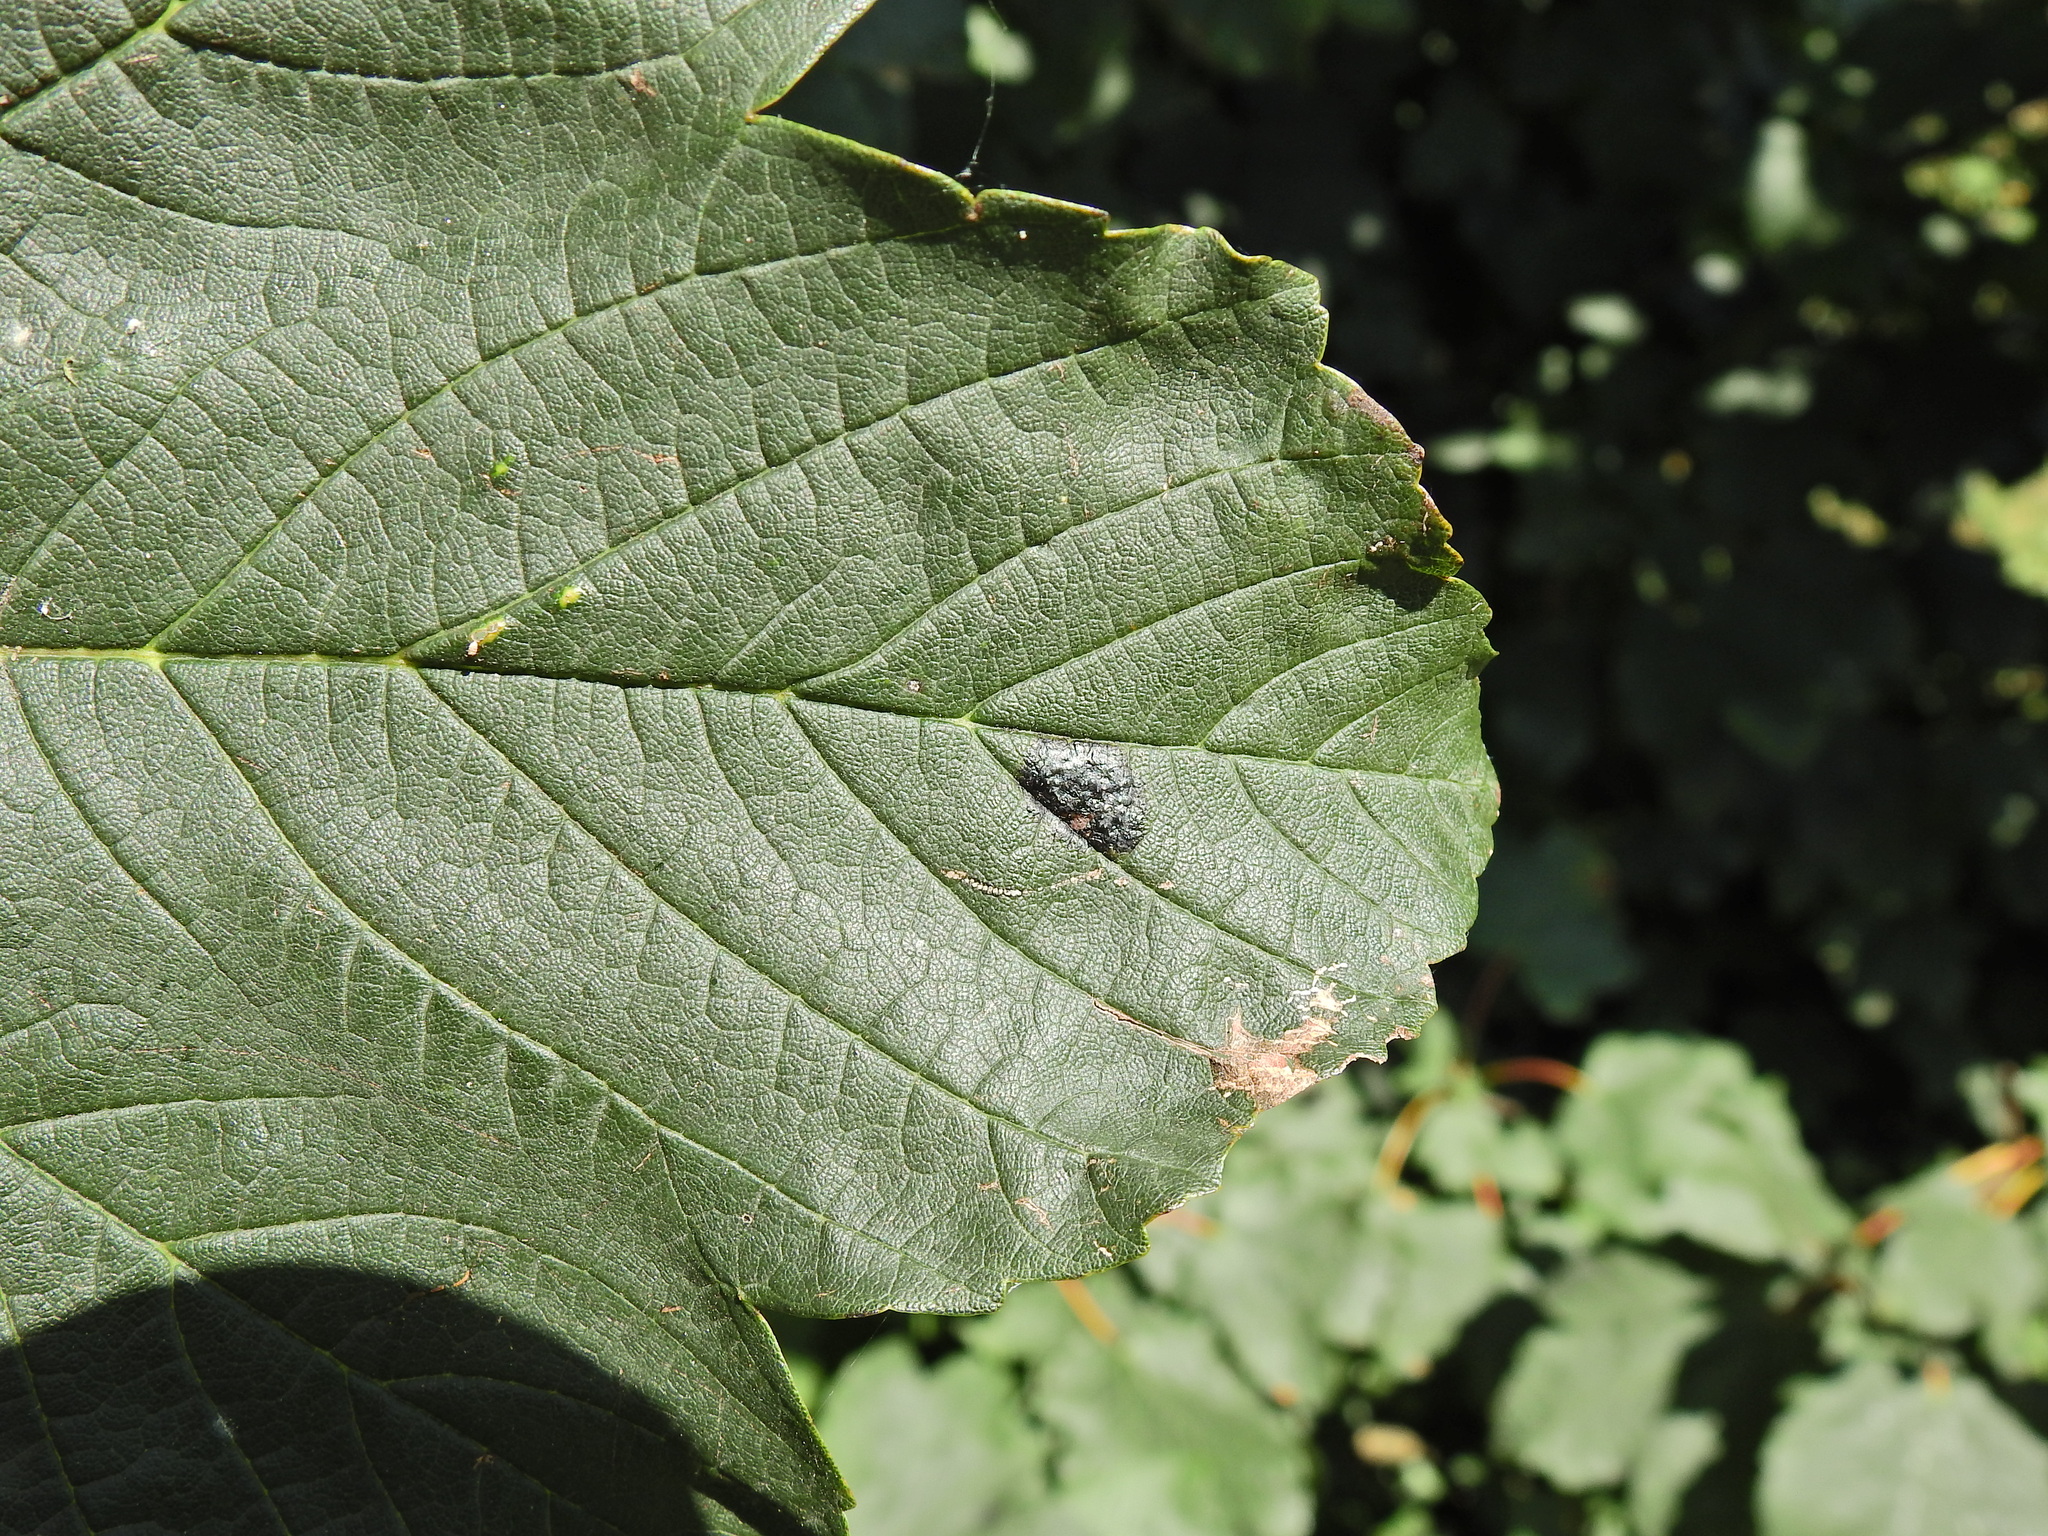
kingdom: Fungi
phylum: Ascomycota
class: Leotiomycetes
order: Rhytismatales
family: Rhytismataceae
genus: Rhytisma
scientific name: Rhytisma acerinum
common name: European tar spot
